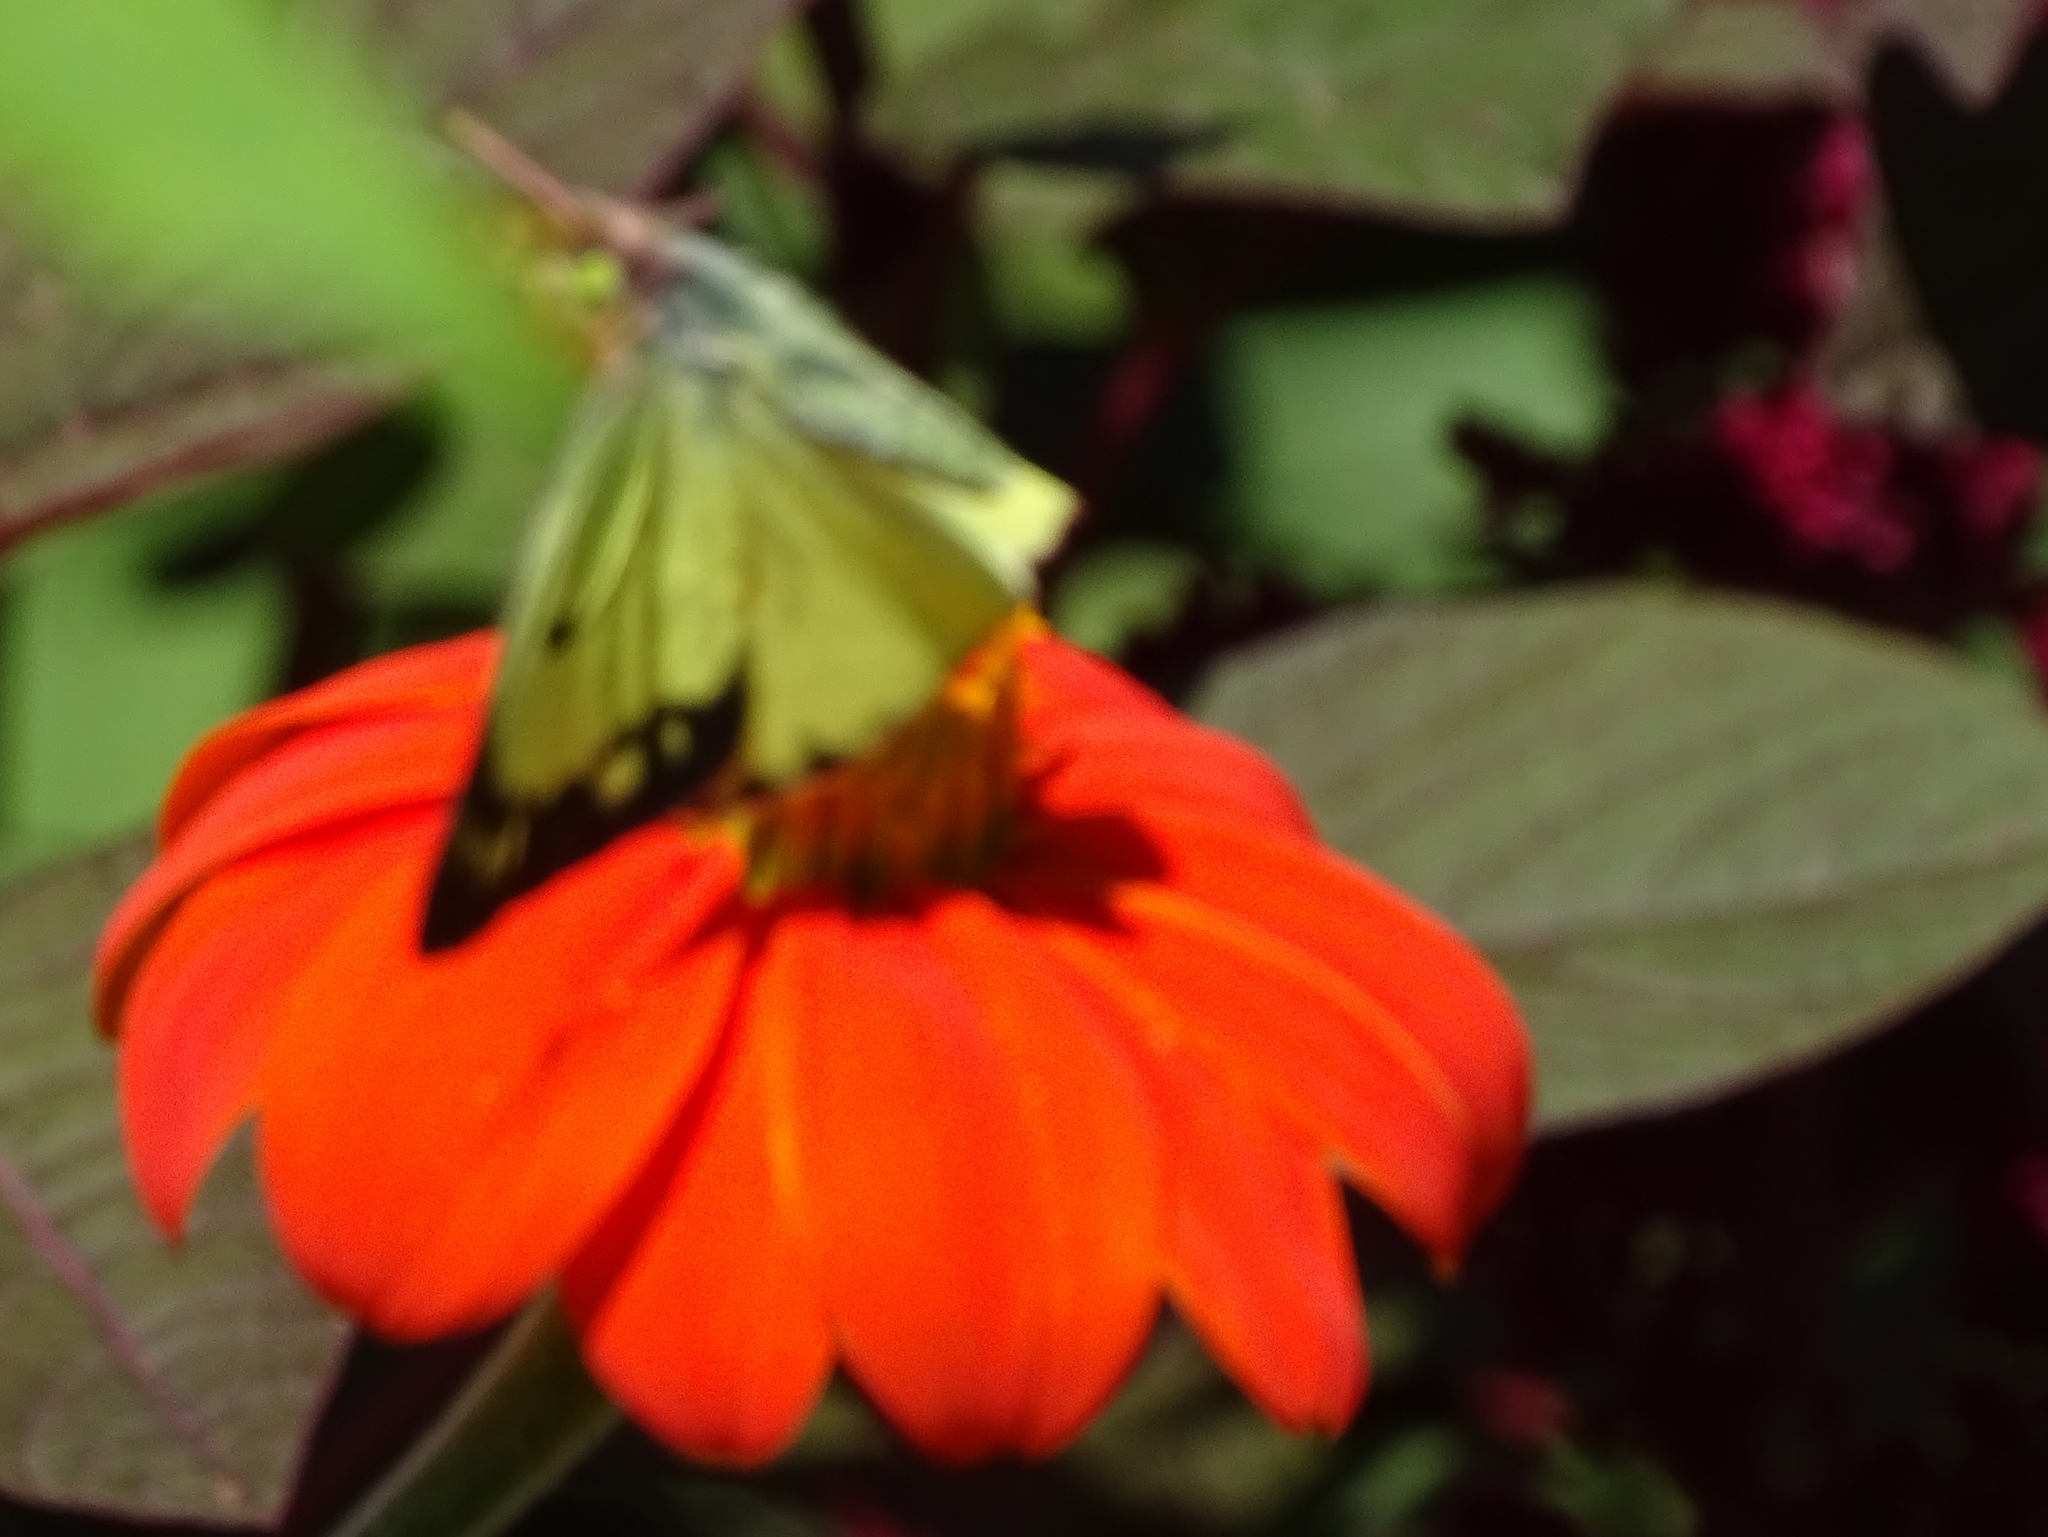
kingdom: Animalia
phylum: Arthropoda
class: Insecta
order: Lepidoptera
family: Pieridae
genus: Colias
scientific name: Colias philodice
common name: Clouded sulphur
